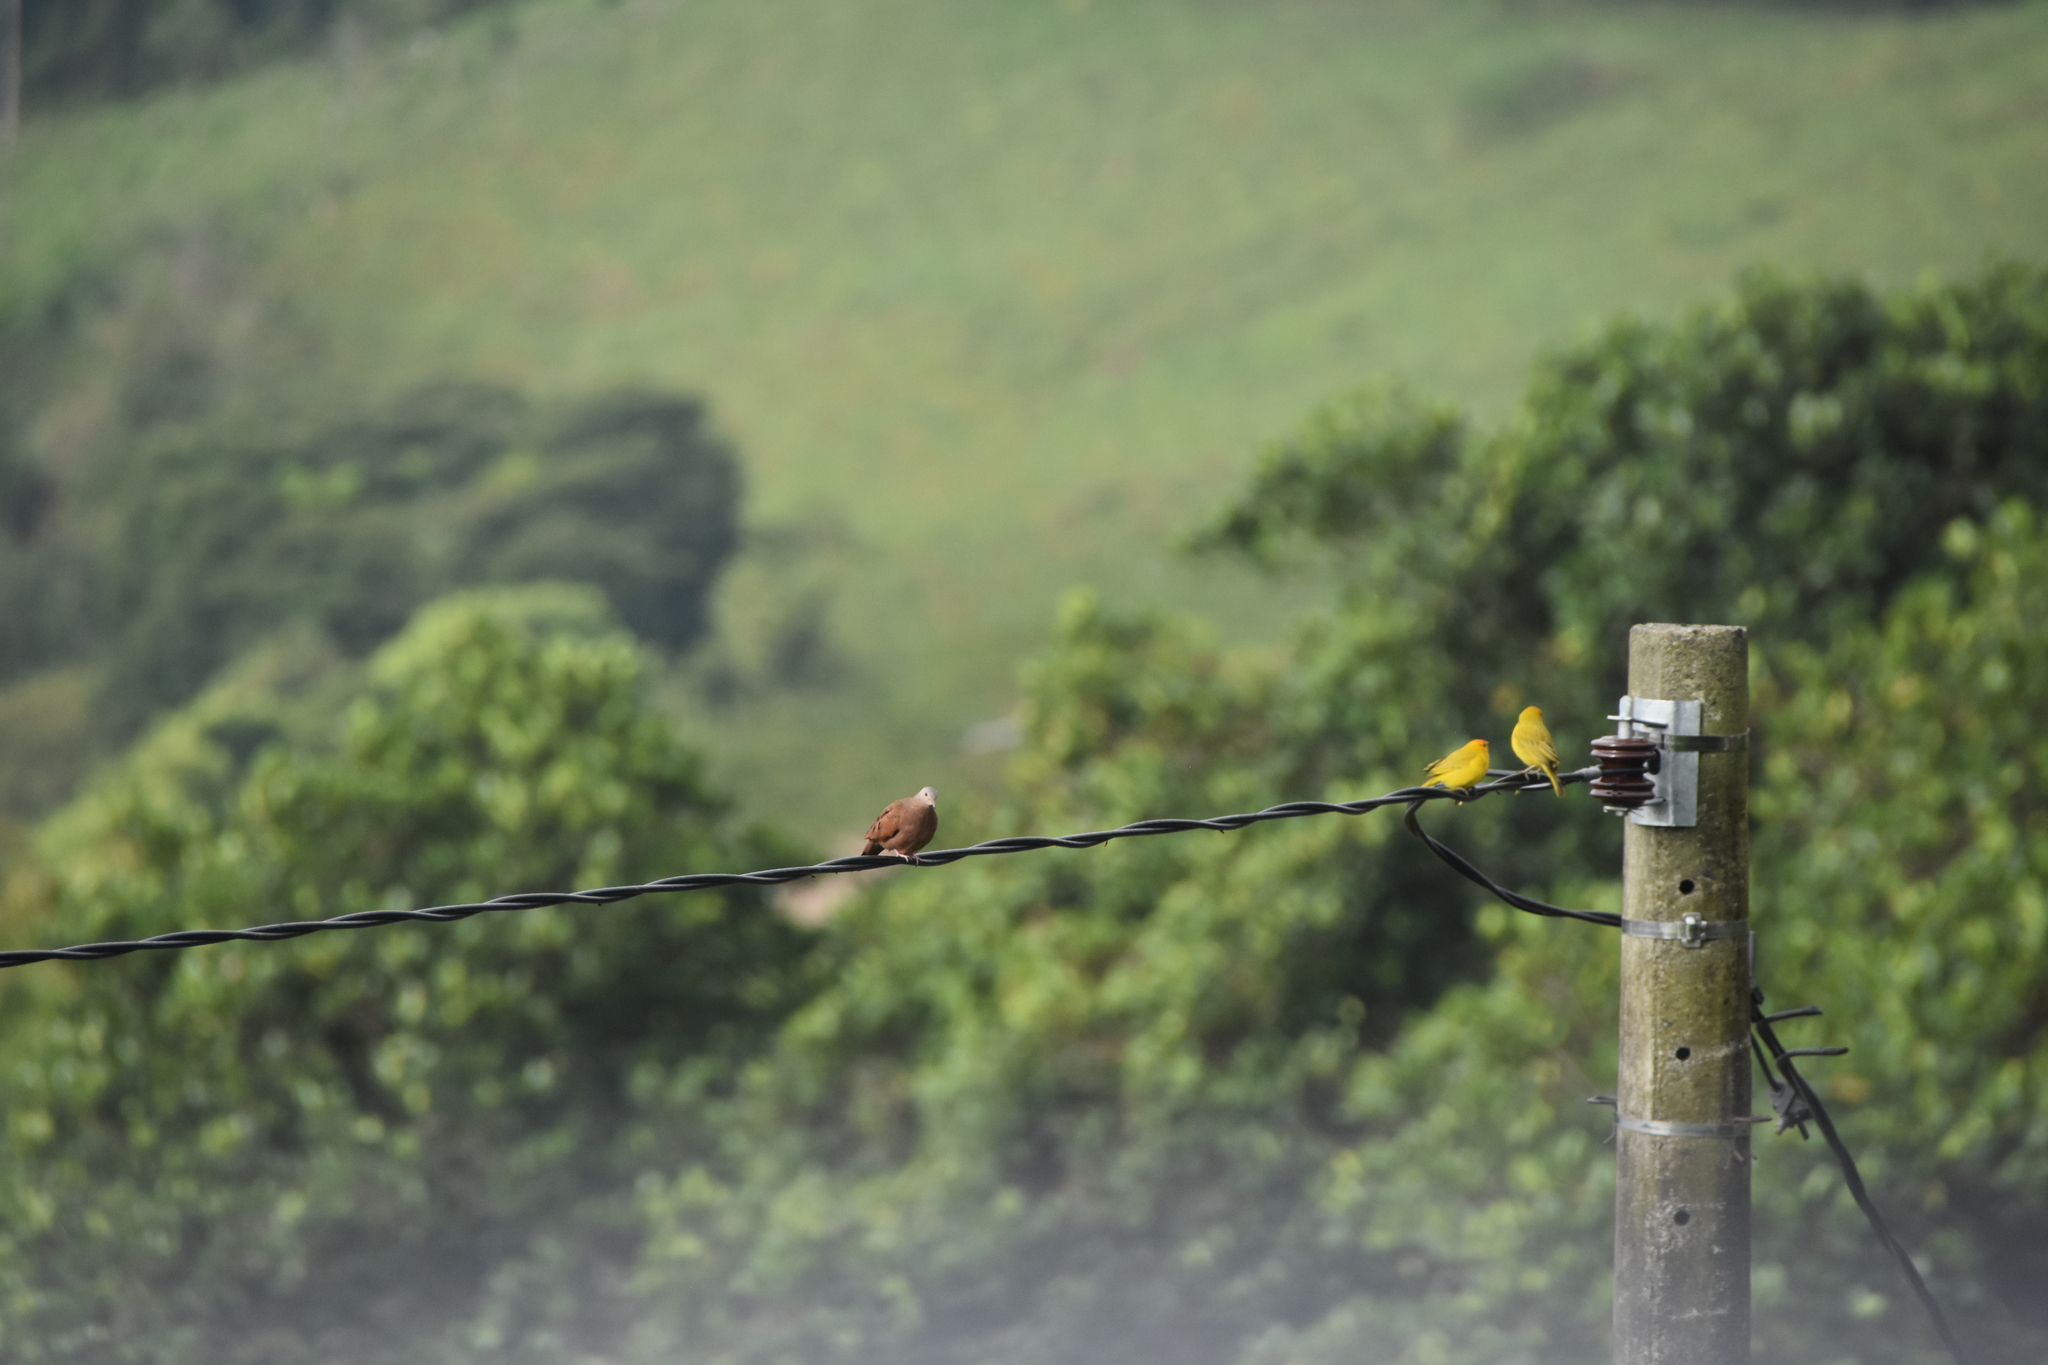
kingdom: Animalia
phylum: Chordata
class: Aves
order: Passeriformes
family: Thraupidae
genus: Sicalis
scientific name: Sicalis flaveola
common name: Saffron finch
